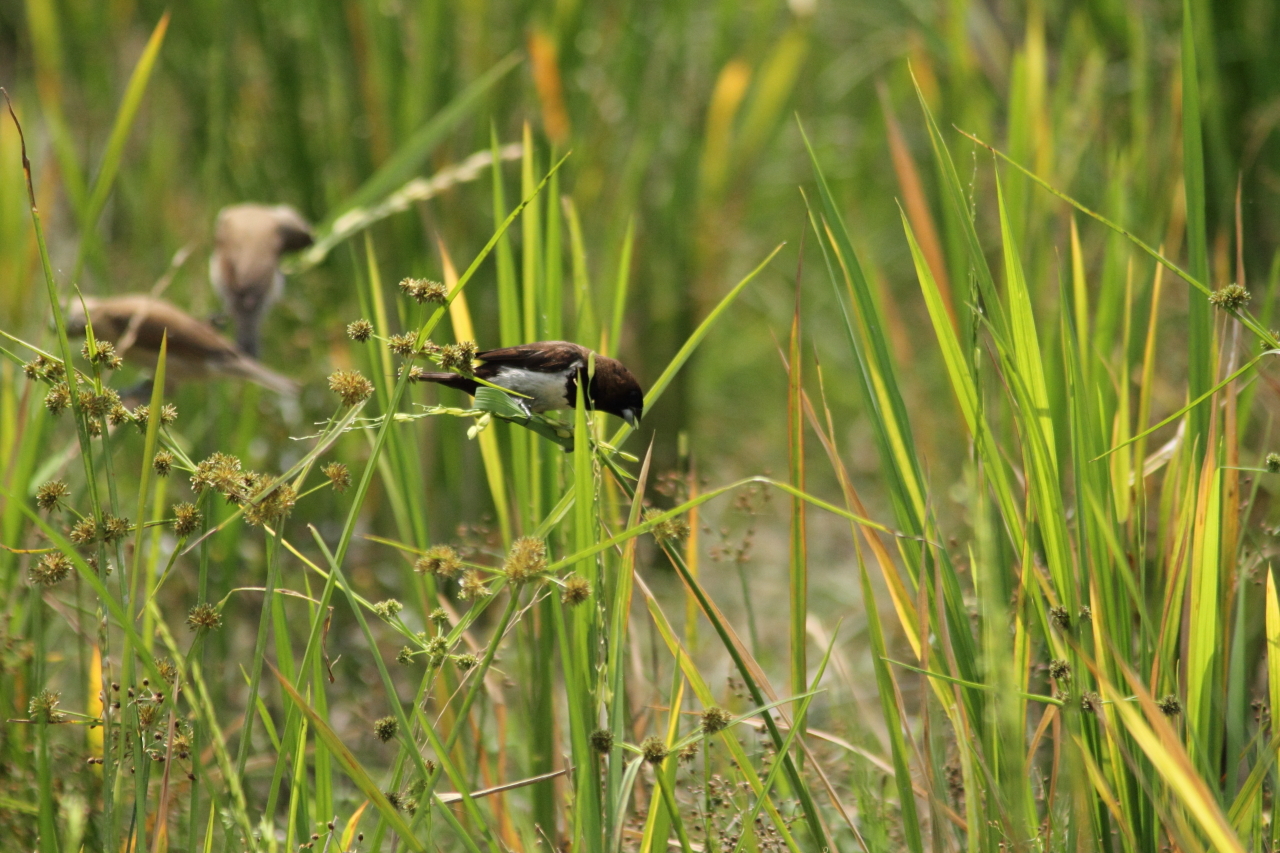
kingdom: Animalia
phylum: Chordata
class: Aves
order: Passeriformes
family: Estrildidae
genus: Lonchura
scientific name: Lonchura leucogastroides
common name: Javan munia
